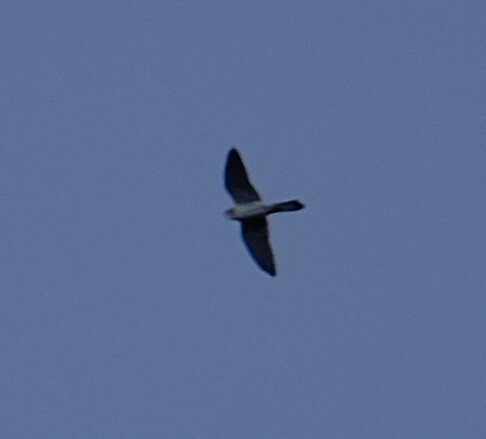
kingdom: Animalia
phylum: Chordata
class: Aves
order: Falconiformes
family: Falconidae
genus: Falco
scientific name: Falco cenchroides
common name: Nankeen kestrel
